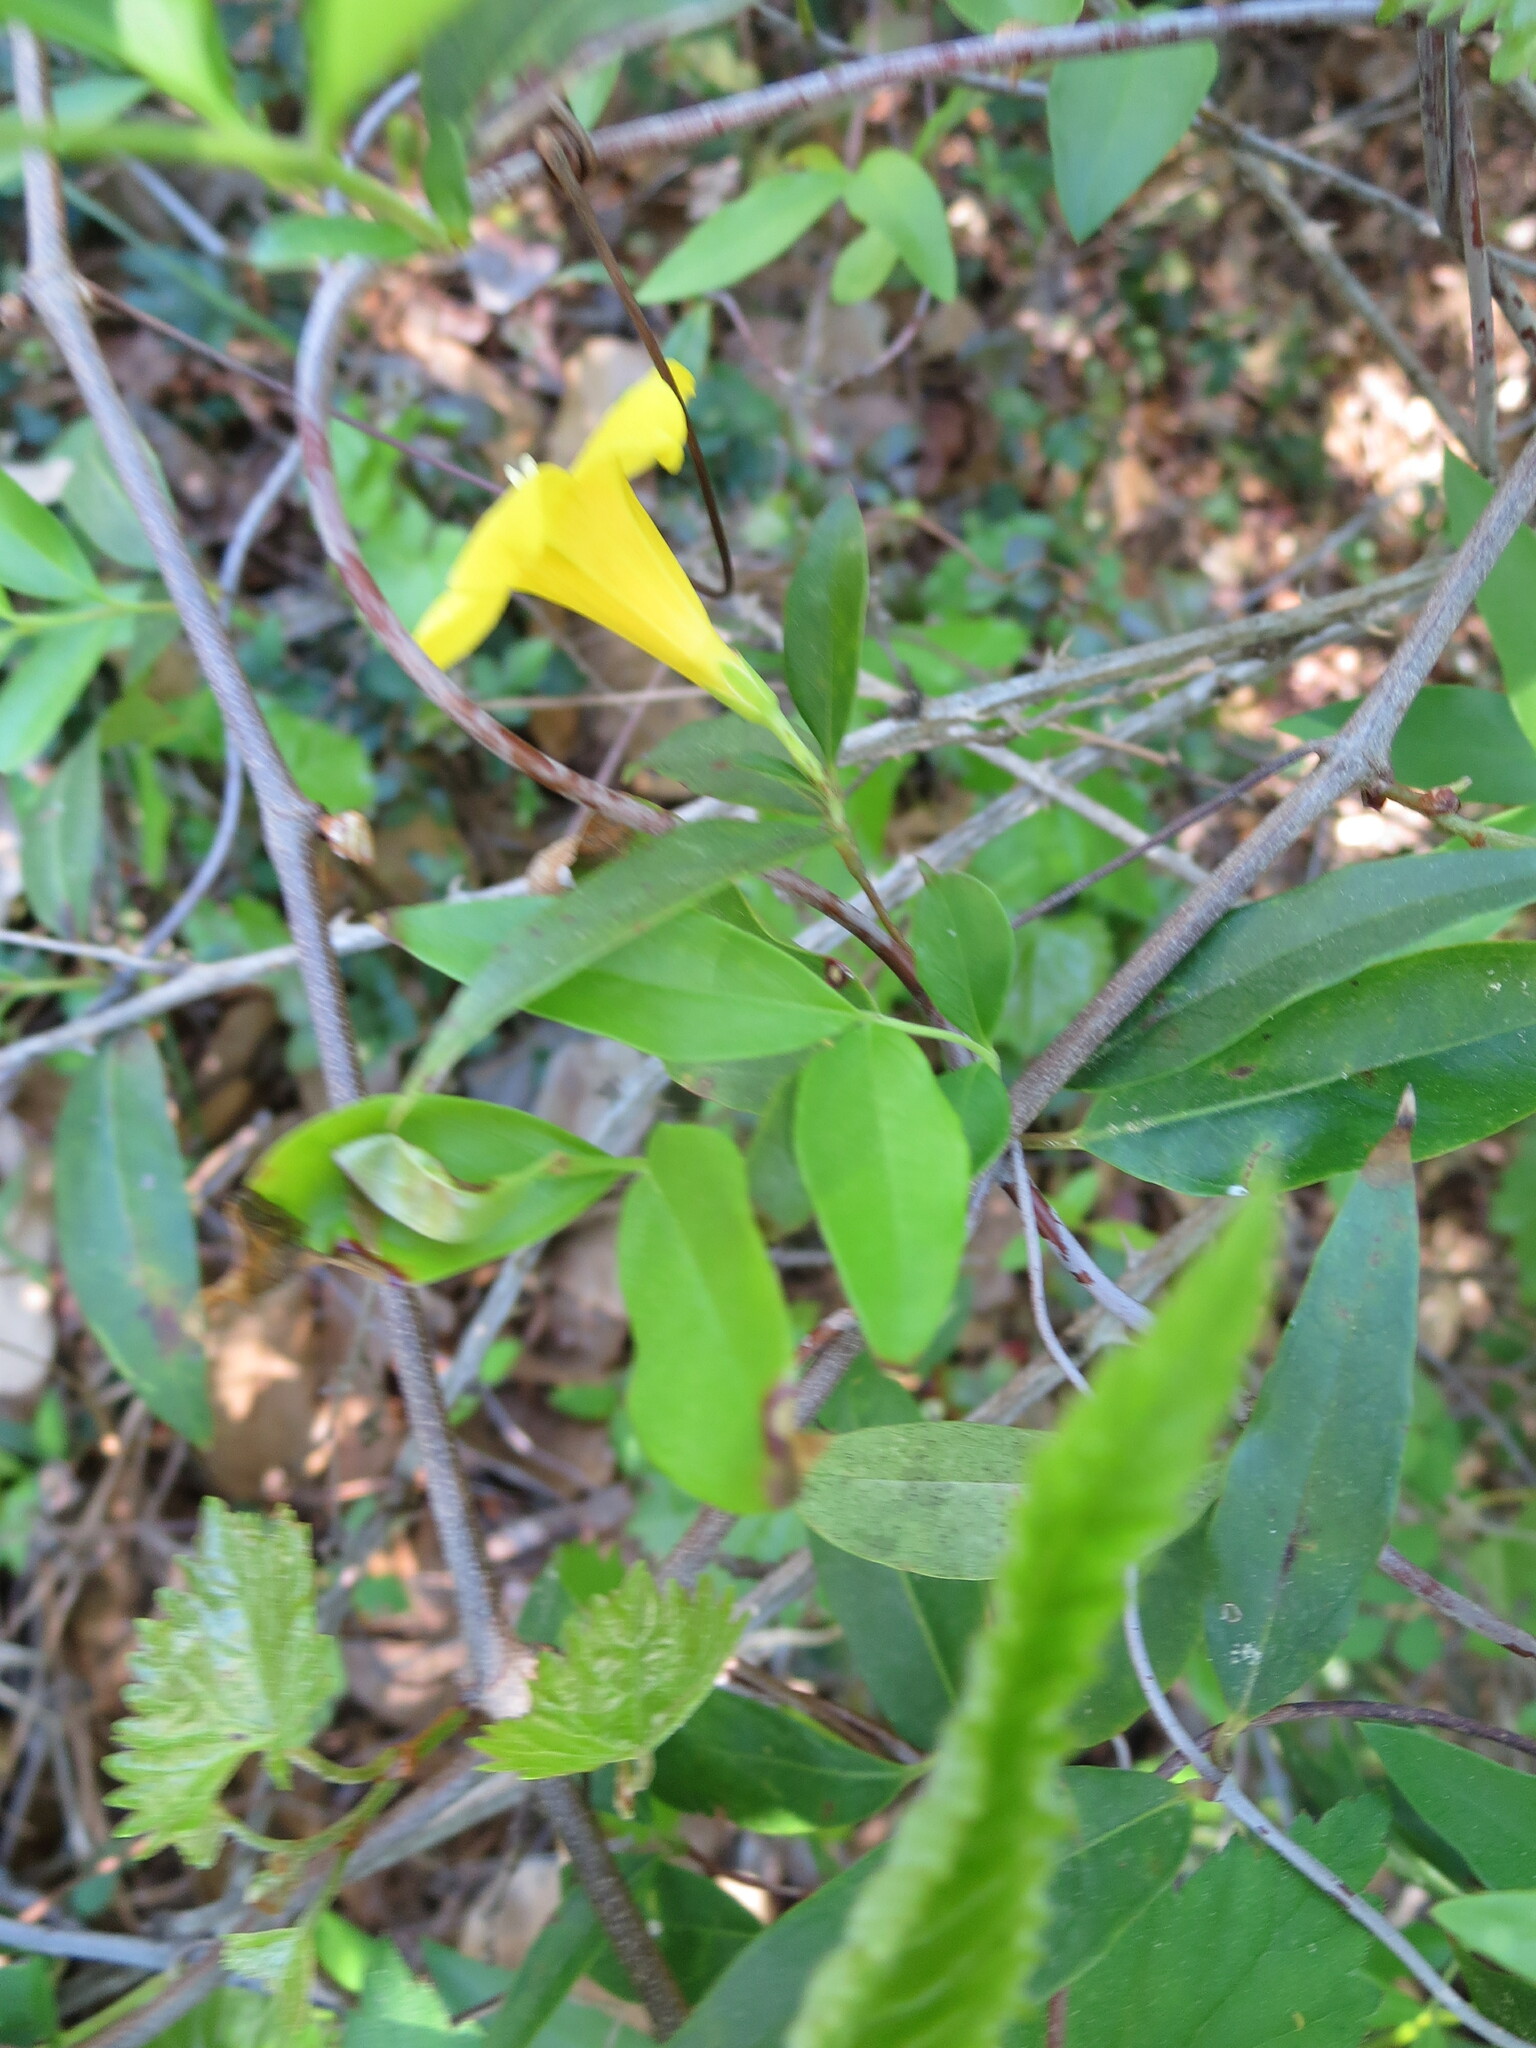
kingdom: Plantae
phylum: Tracheophyta
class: Magnoliopsida
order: Gentianales
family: Gelsemiaceae
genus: Gelsemium
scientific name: Gelsemium sempervirens
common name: Carolina-jasmine
